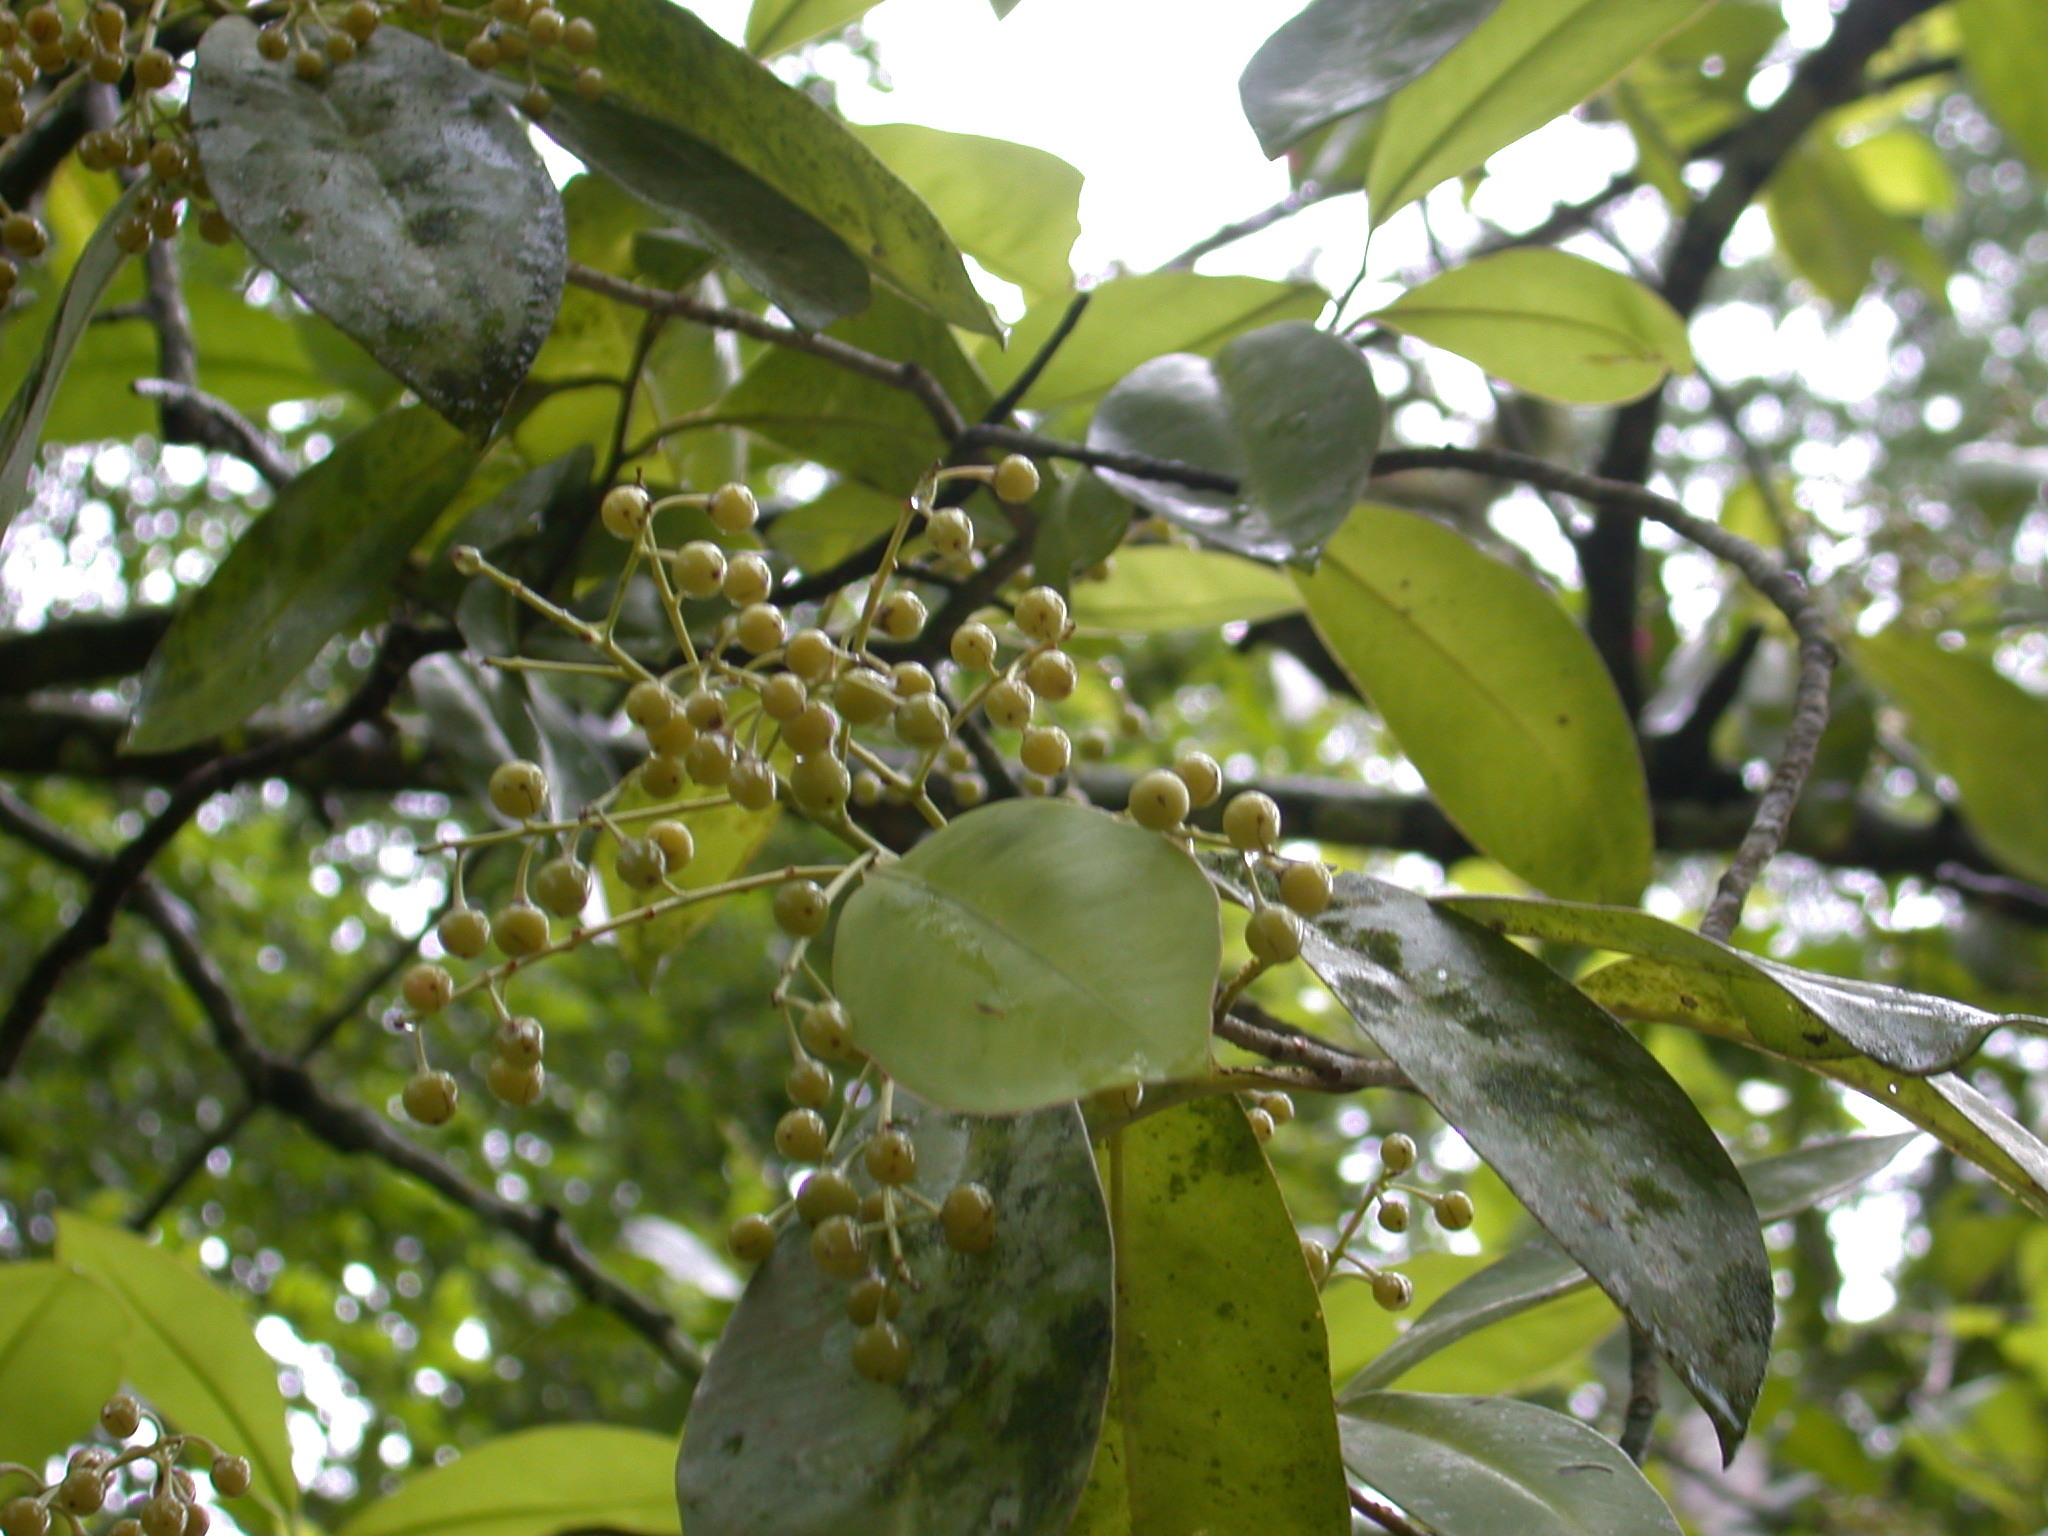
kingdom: Plantae
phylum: Tracheophyta
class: Magnoliopsida
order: Ericales
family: Primulaceae
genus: Ardisia
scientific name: Ardisia bracteosa
